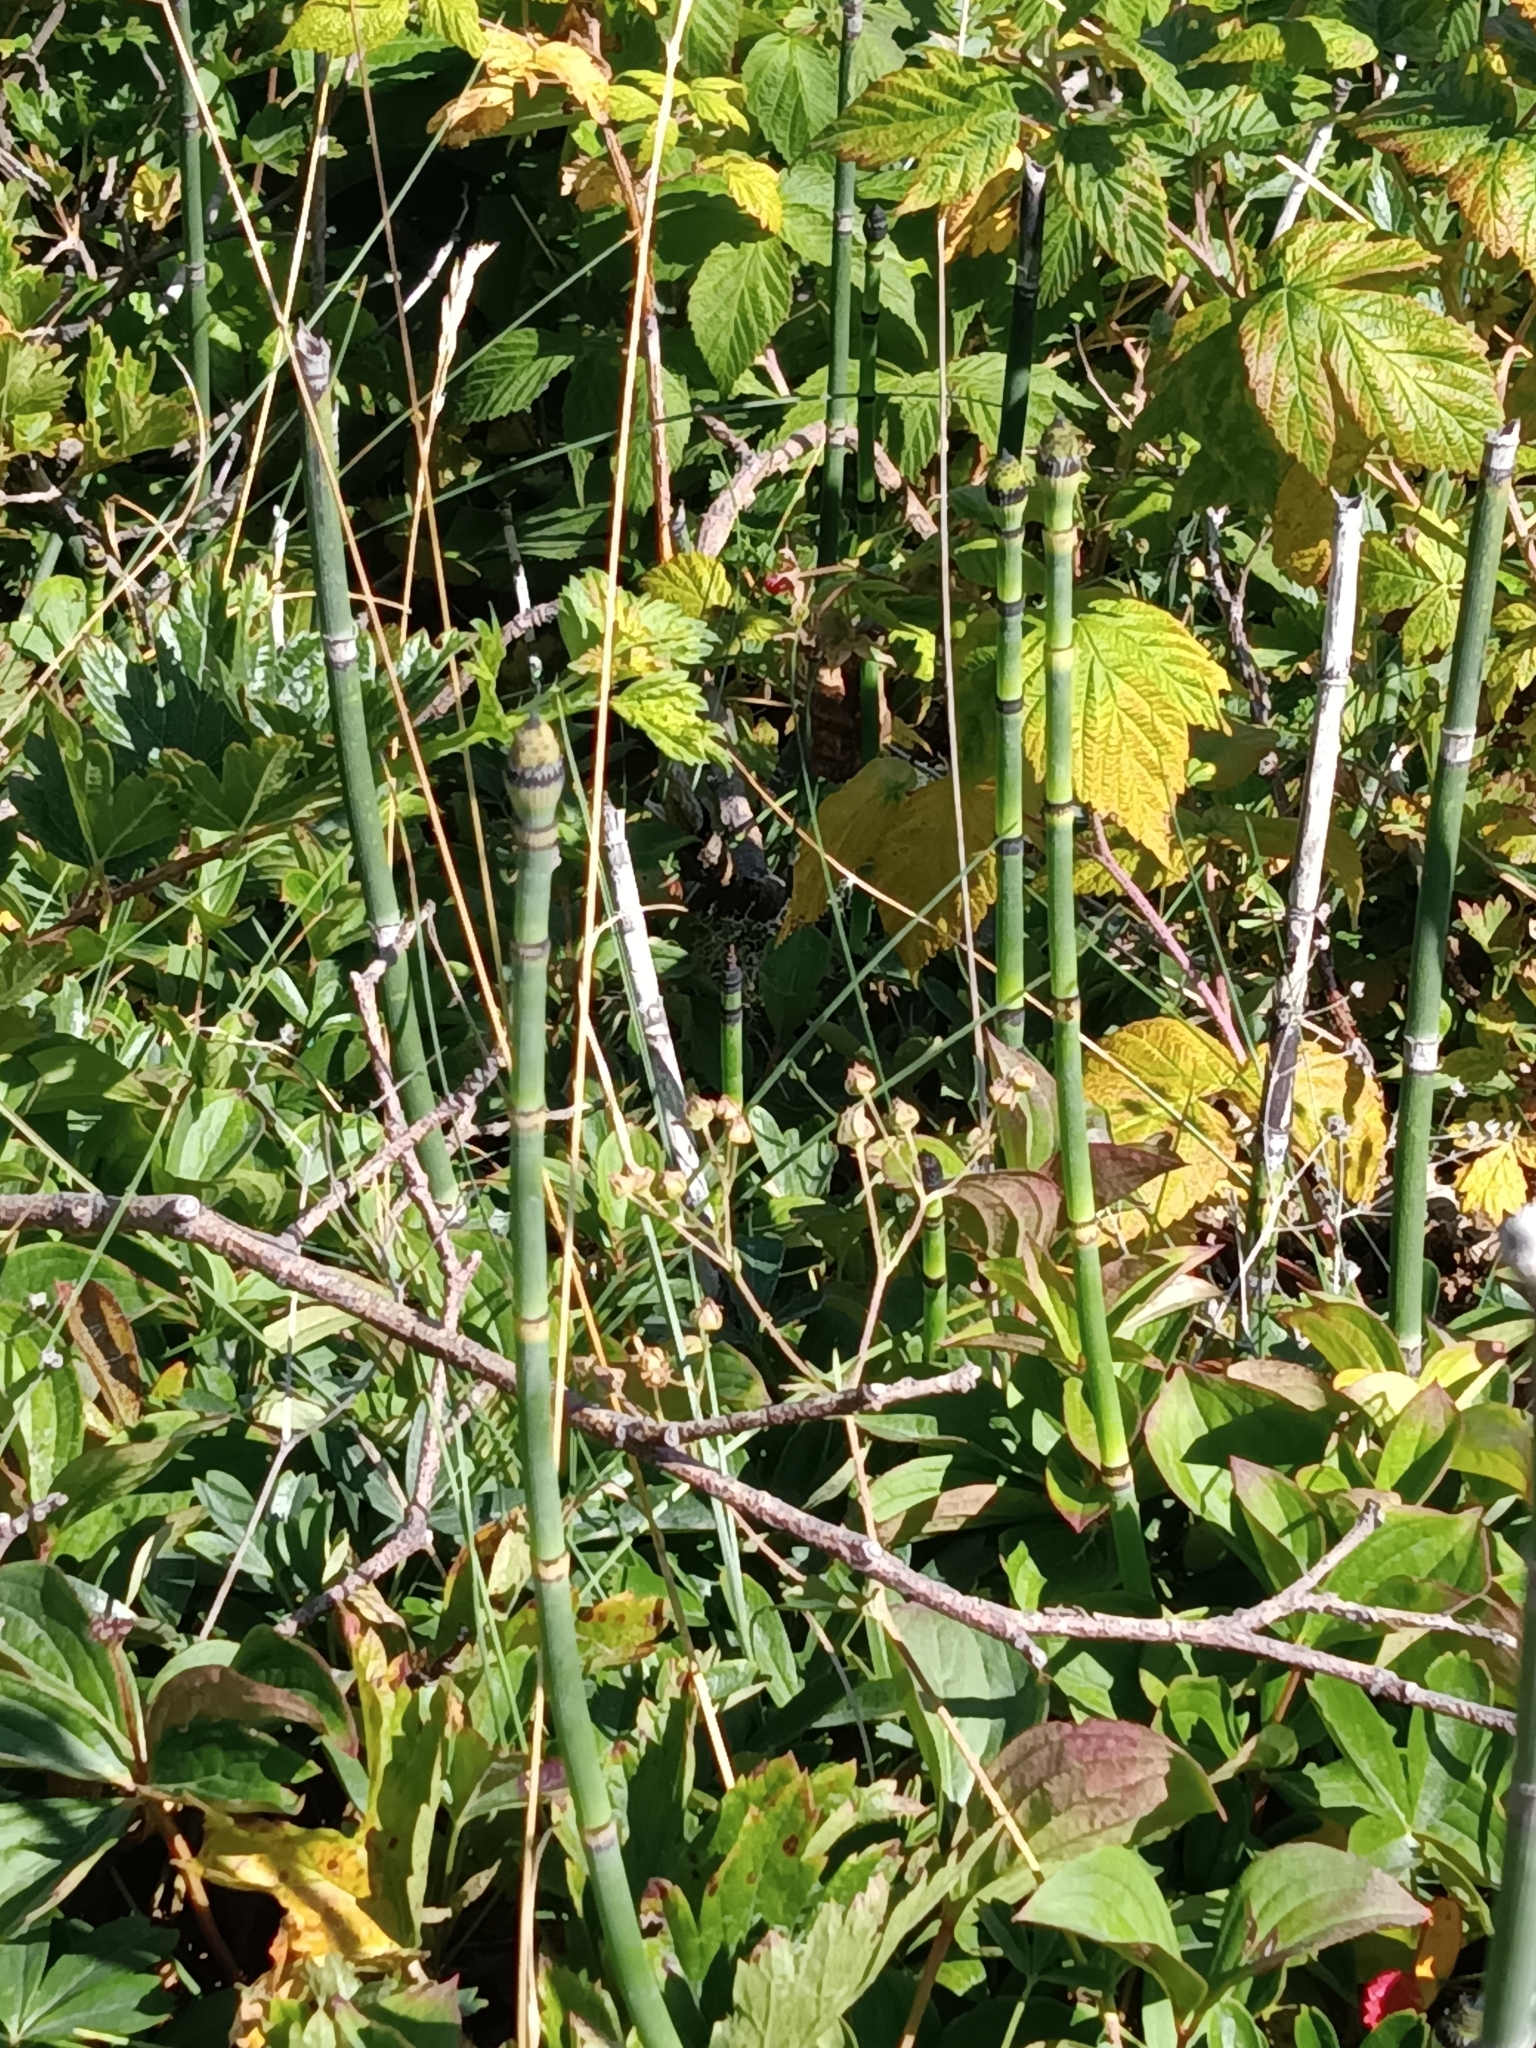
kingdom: Plantae
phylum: Tracheophyta
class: Polypodiopsida
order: Equisetales
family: Equisetaceae
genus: Equisetum
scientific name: Equisetum praealtum
